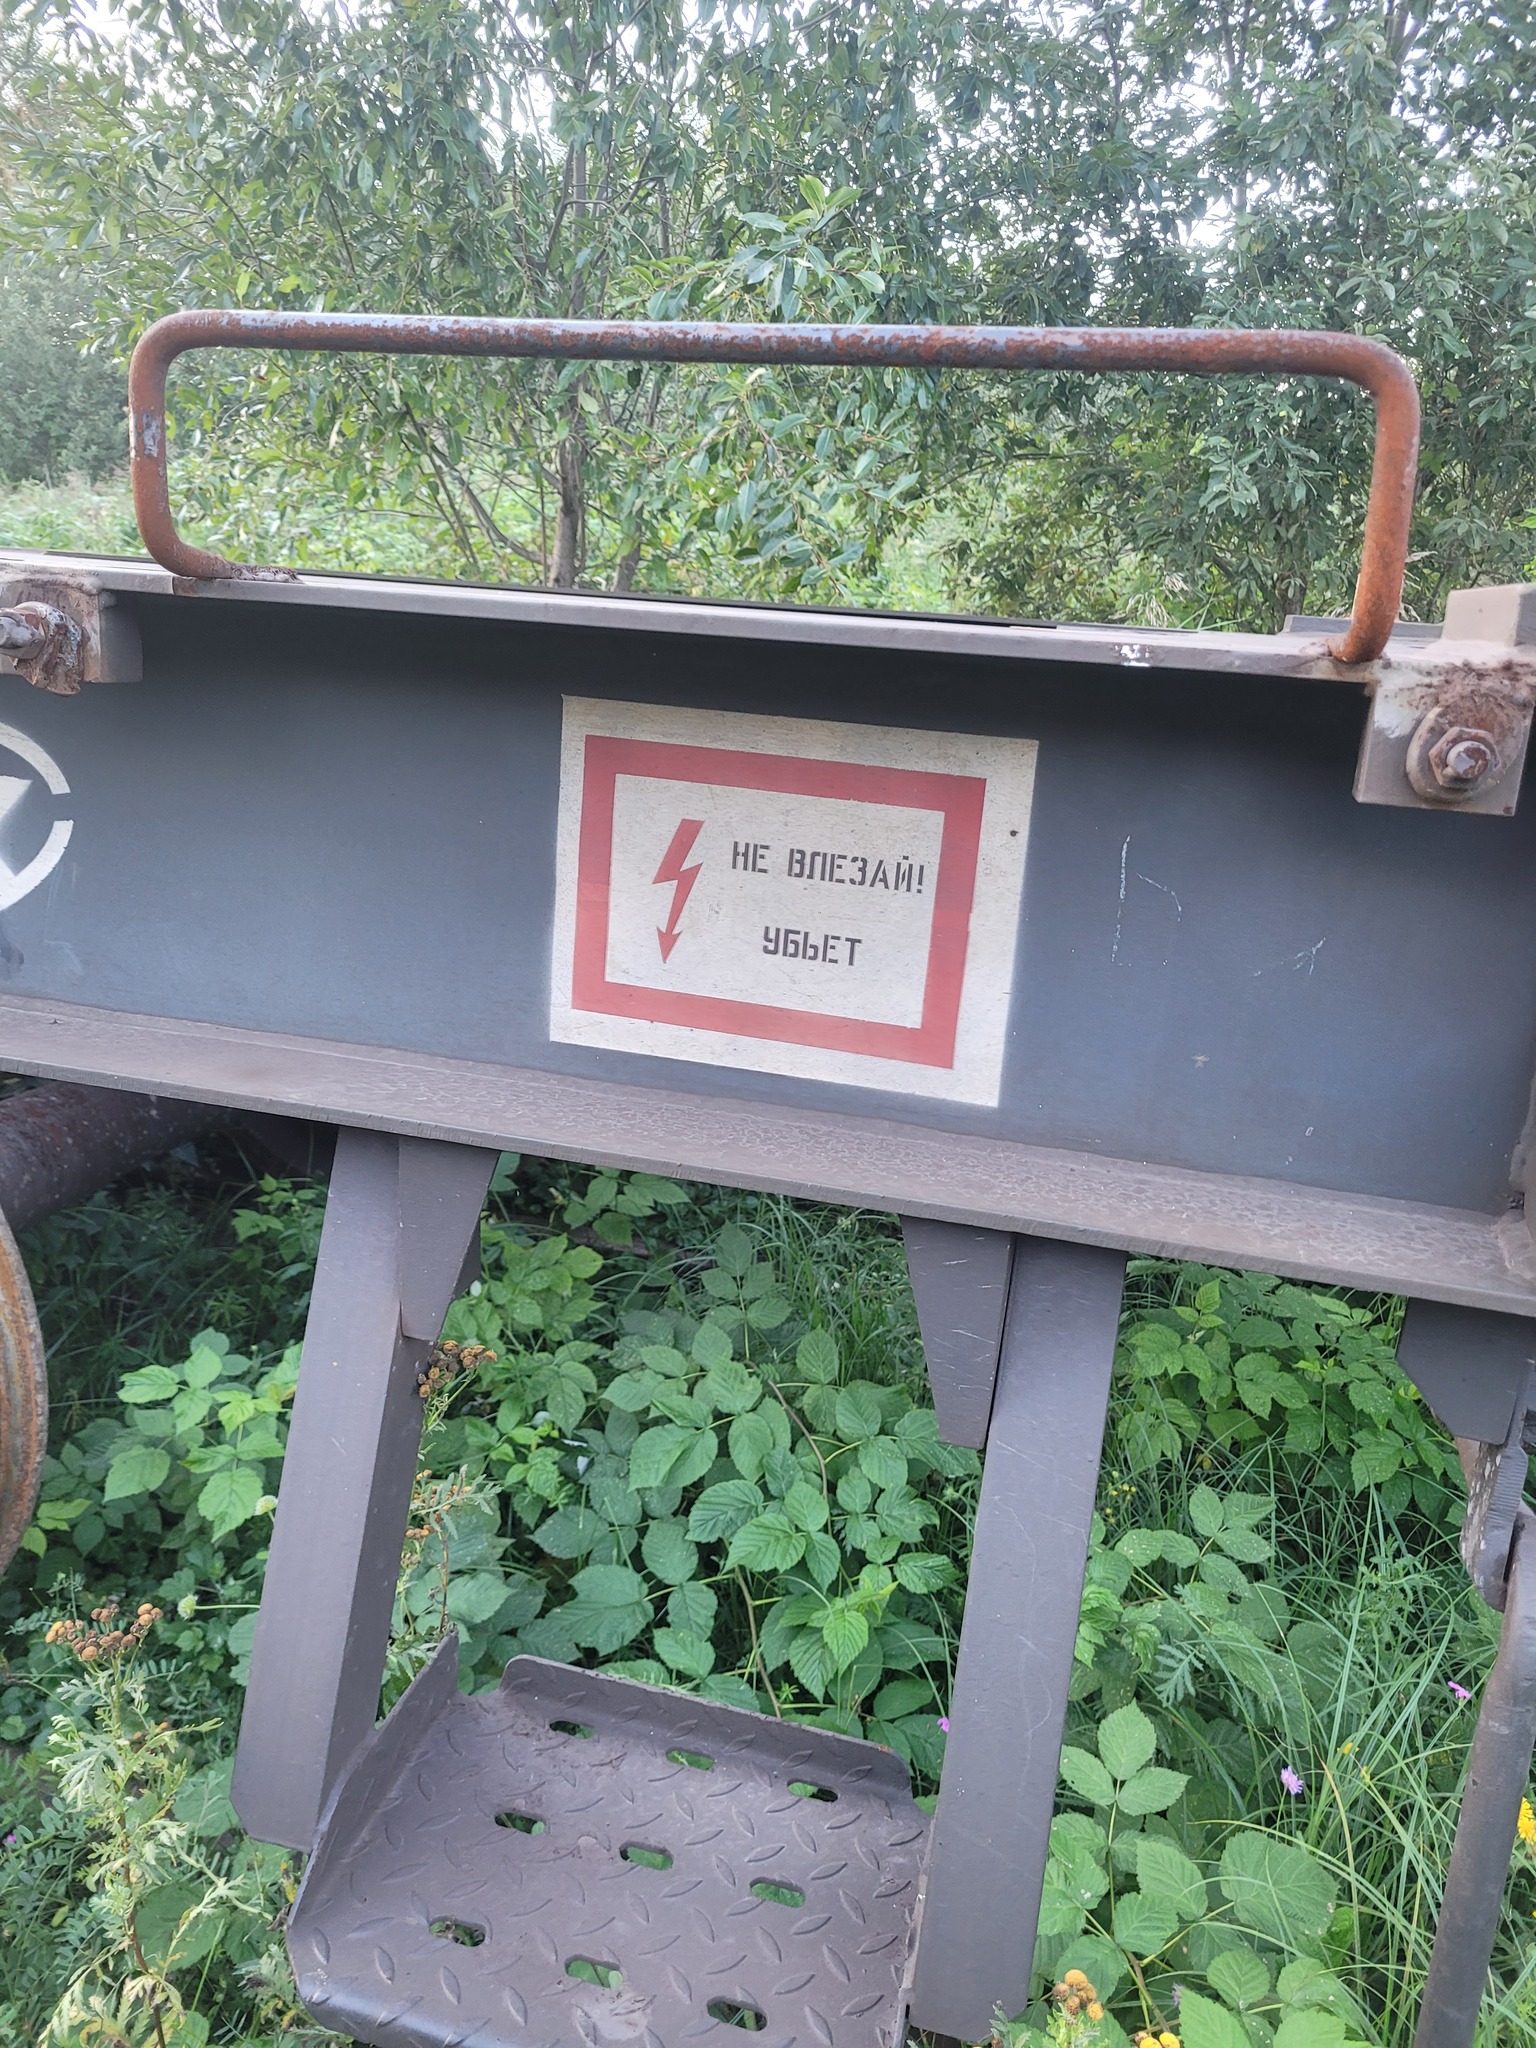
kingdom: Plantae
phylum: Tracheophyta
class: Magnoliopsida
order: Rosales
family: Rosaceae
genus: Rubus
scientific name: Rubus idaeus
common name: Raspberry
